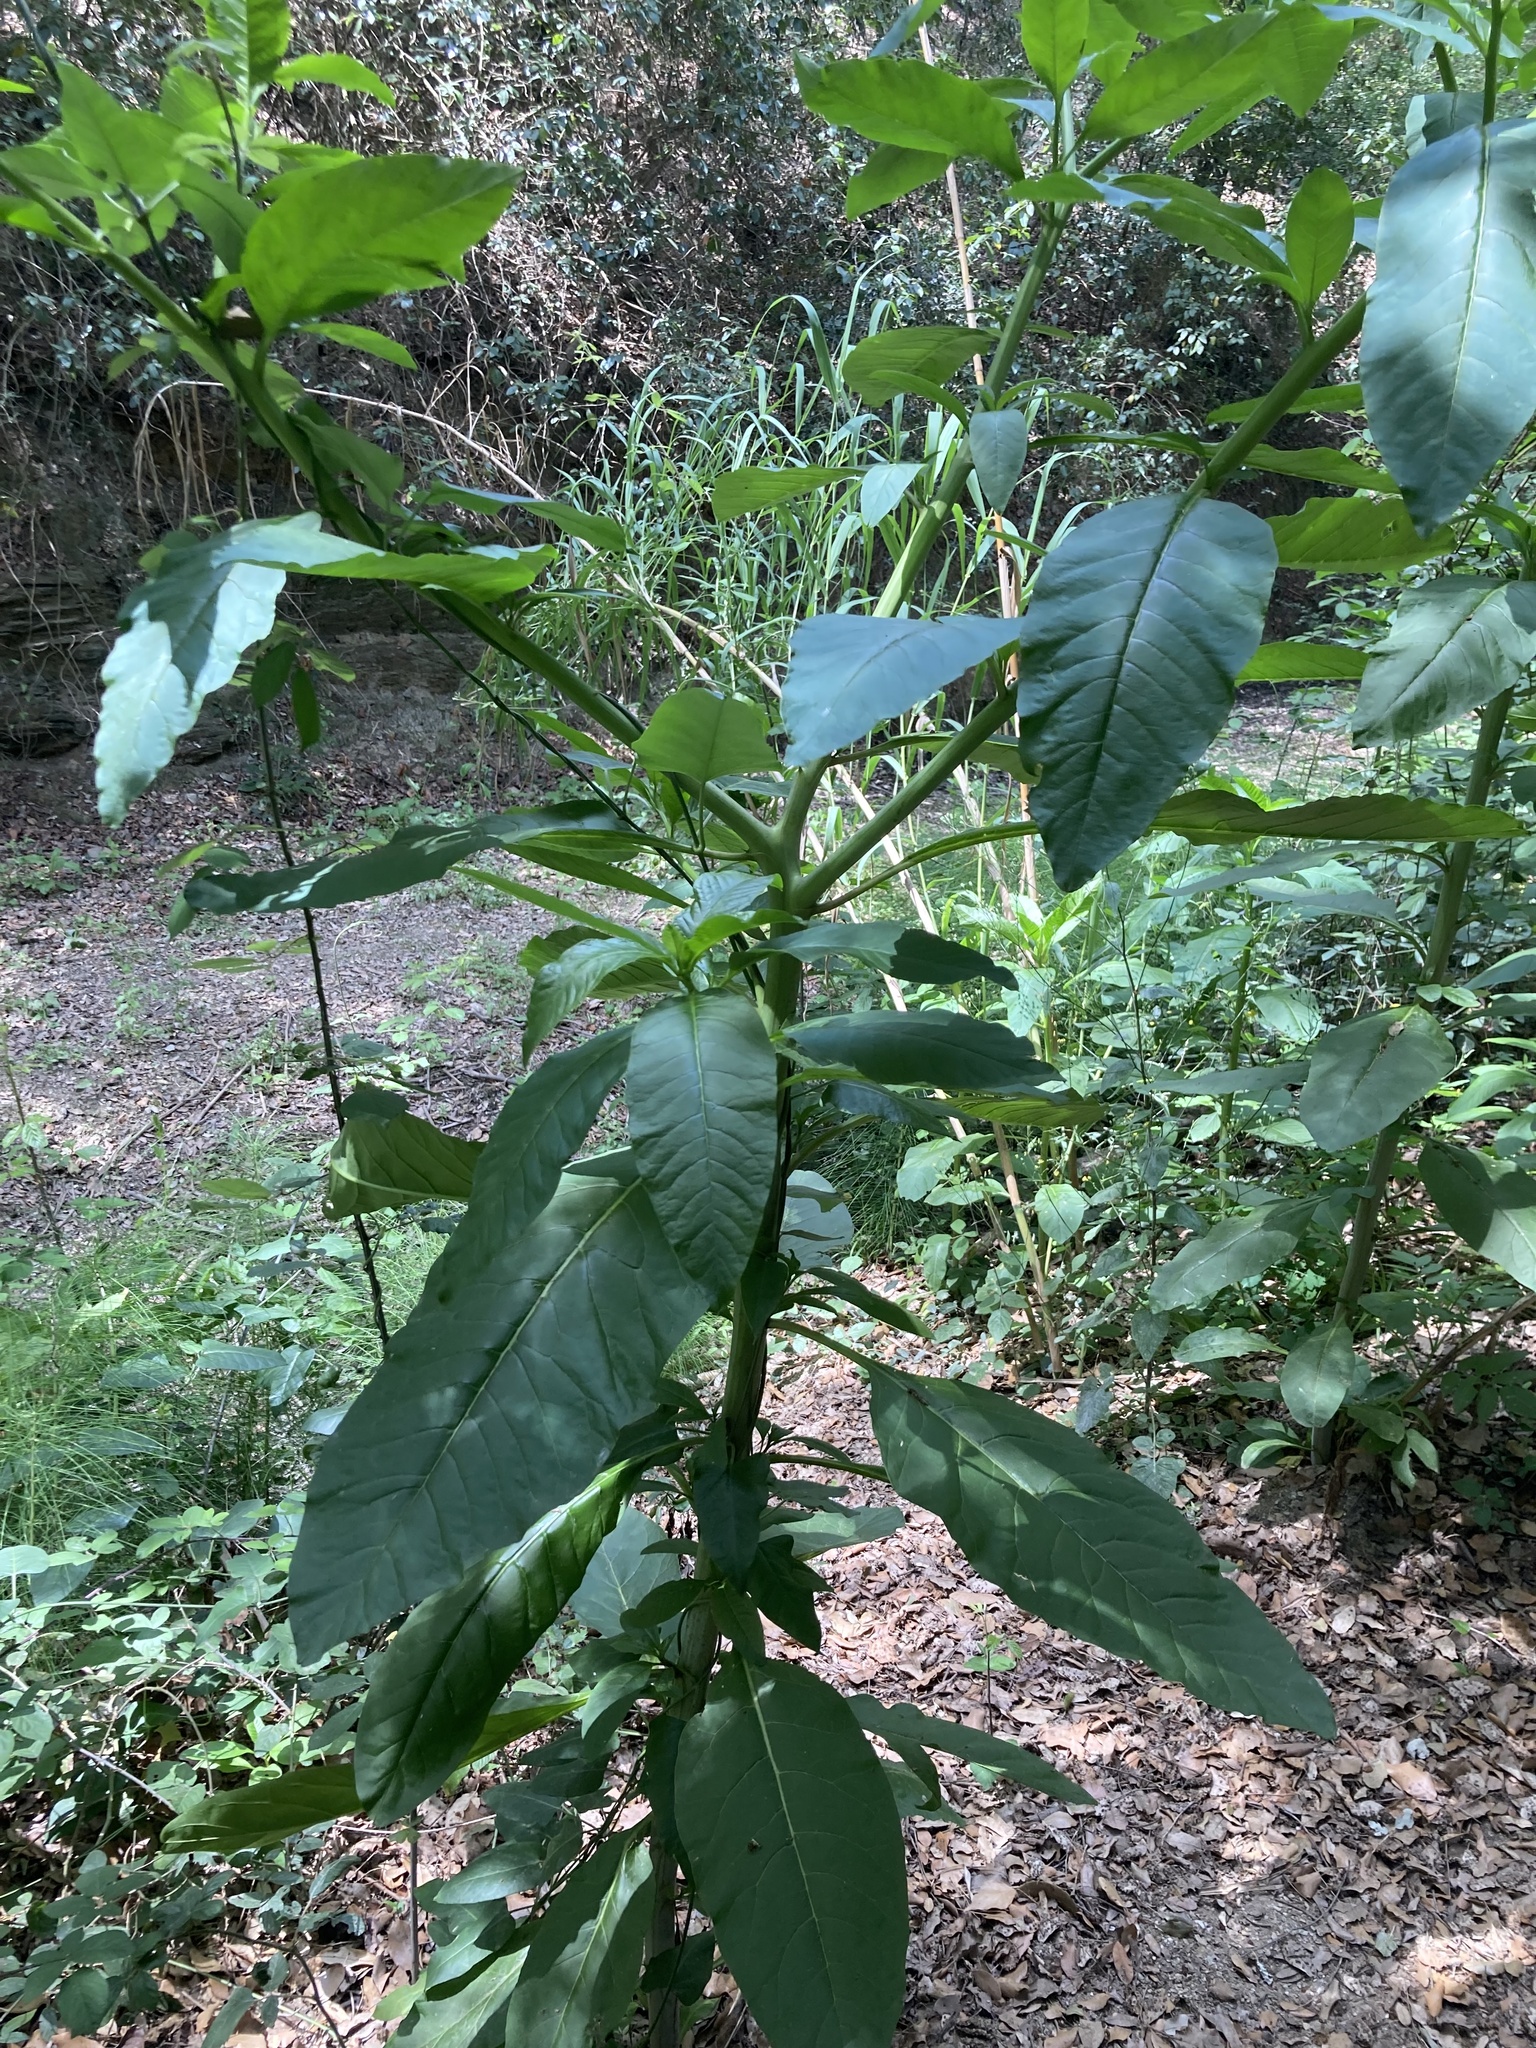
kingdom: Plantae
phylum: Tracheophyta
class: Magnoliopsida
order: Gentianales
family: Apocynaceae
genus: Araujia
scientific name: Araujia sericifera
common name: White bladderflower
